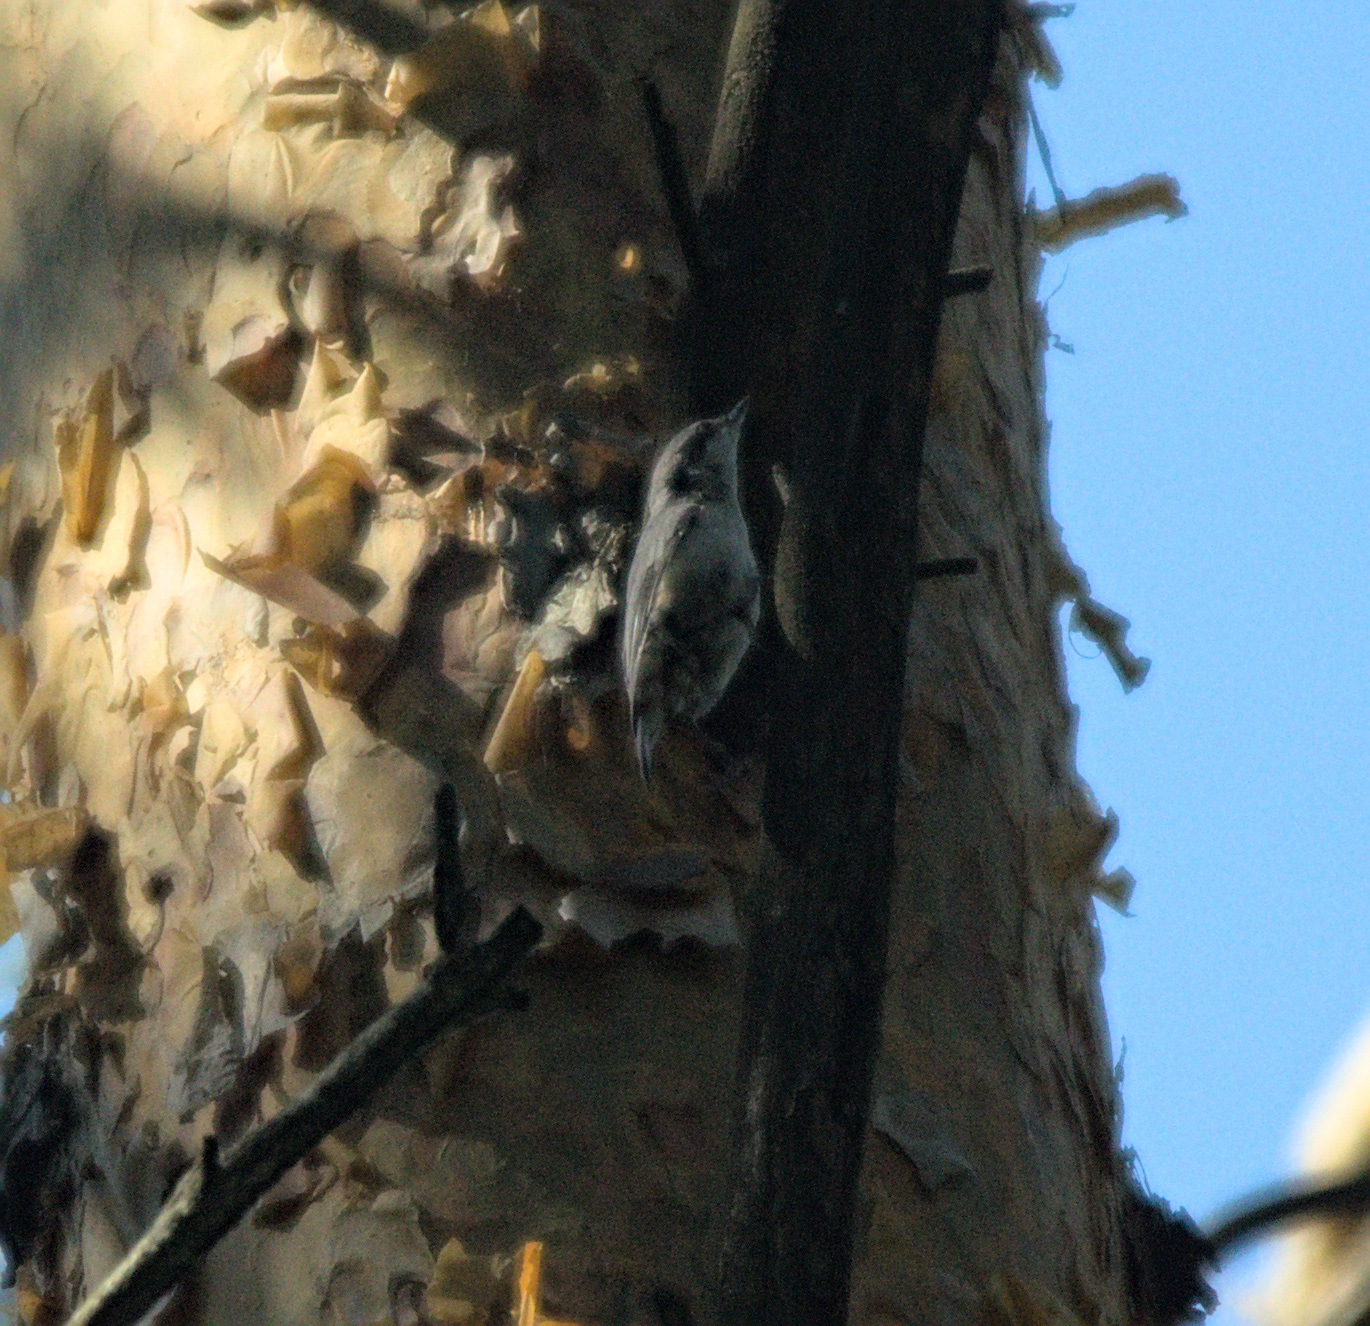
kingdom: Animalia
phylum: Chordata
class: Aves
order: Passeriformes
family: Sittidae
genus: Sitta
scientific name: Sitta europaea
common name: Eurasian nuthatch
